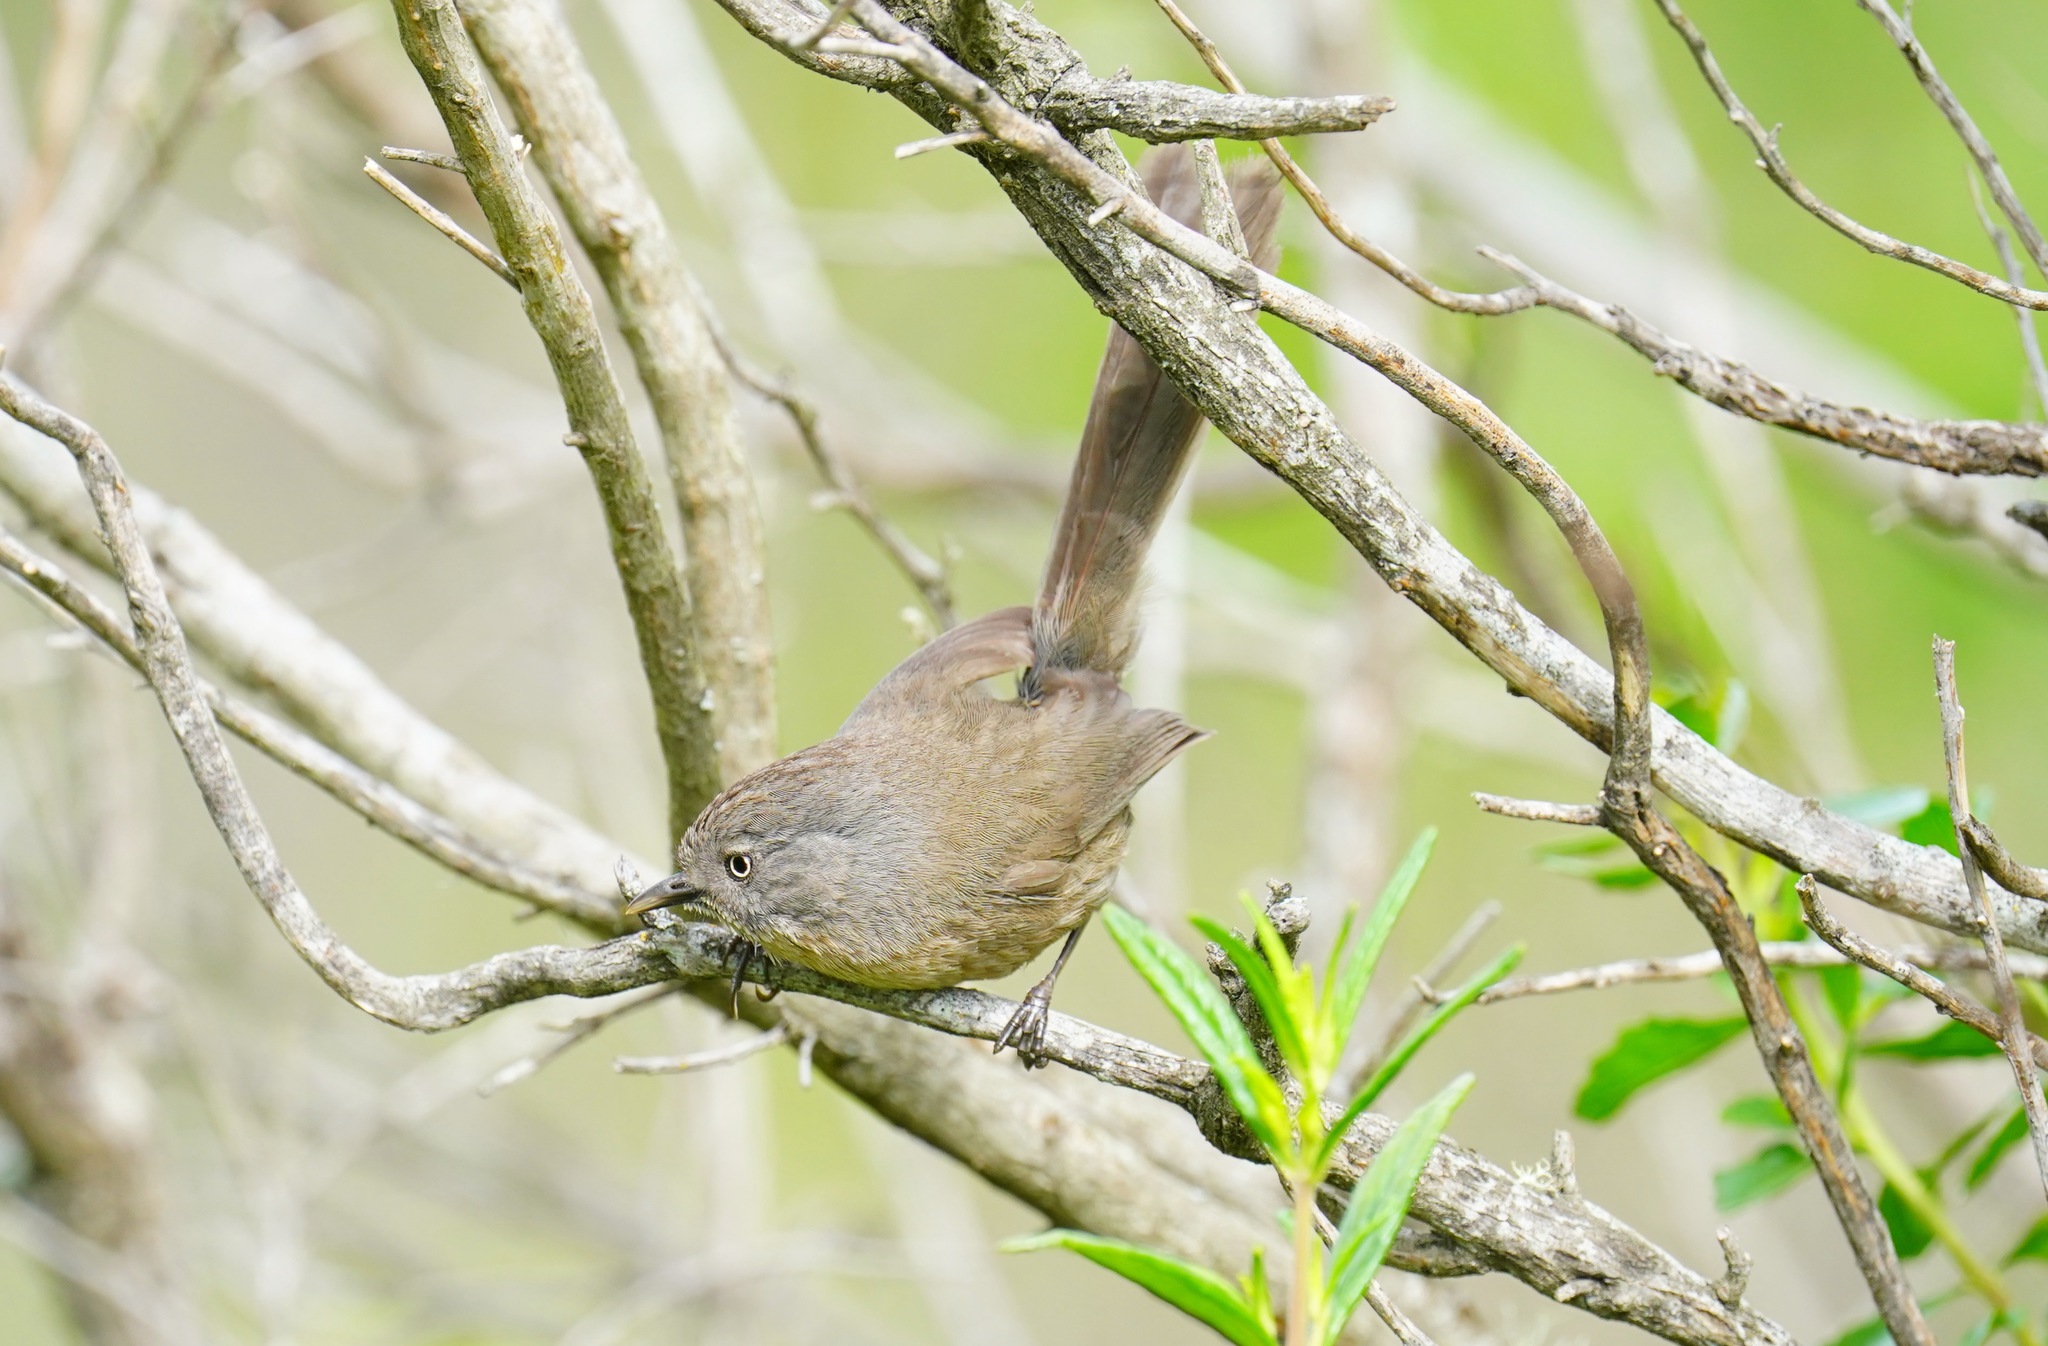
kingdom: Animalia
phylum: Chordata
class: Aves
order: Passeriformes
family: Sylviidae
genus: Chamaea
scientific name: Chamaea fasciata
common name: Wrentit
